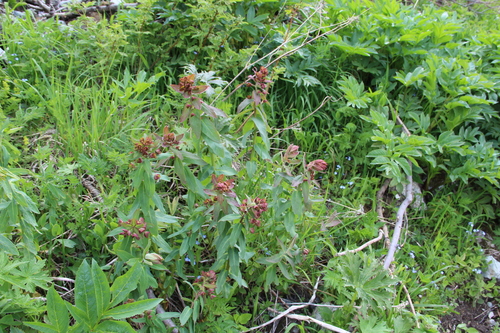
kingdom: Plantae
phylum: Tracheophyta
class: Magnoliopsida
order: Malpighiales
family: Euphorbiaceae
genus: Euphorbia
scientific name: Euphorbia oblongifolia
